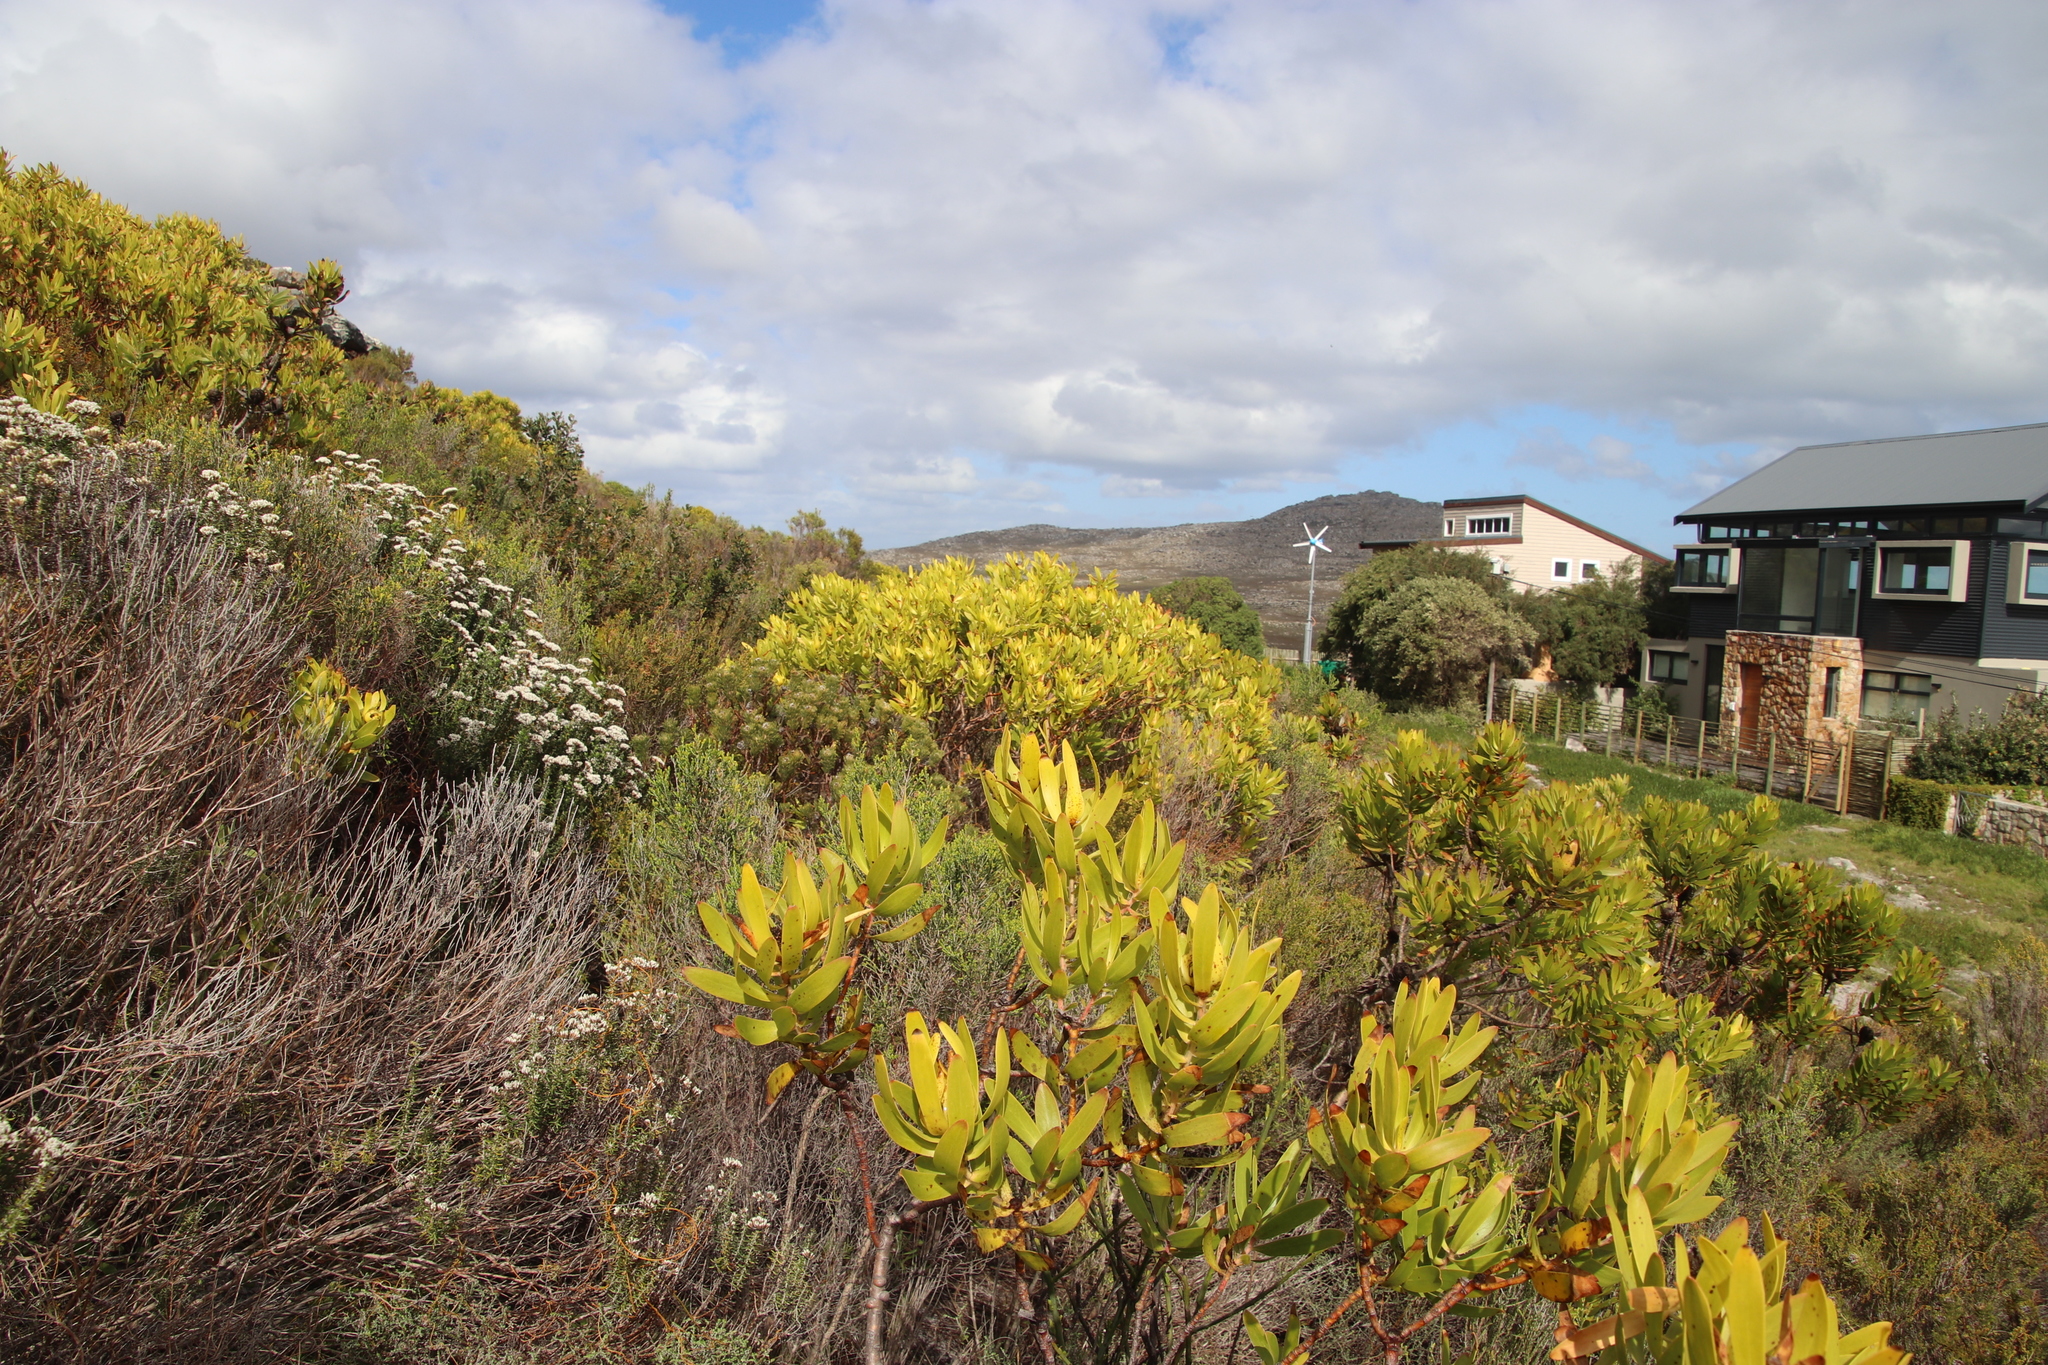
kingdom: Plantae
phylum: Tracheophyta
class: Magnoliopsida
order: Proteales
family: Proteaceae
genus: Leucadendron
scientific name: Leucadendron laureolum
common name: Golden sunshinebush
